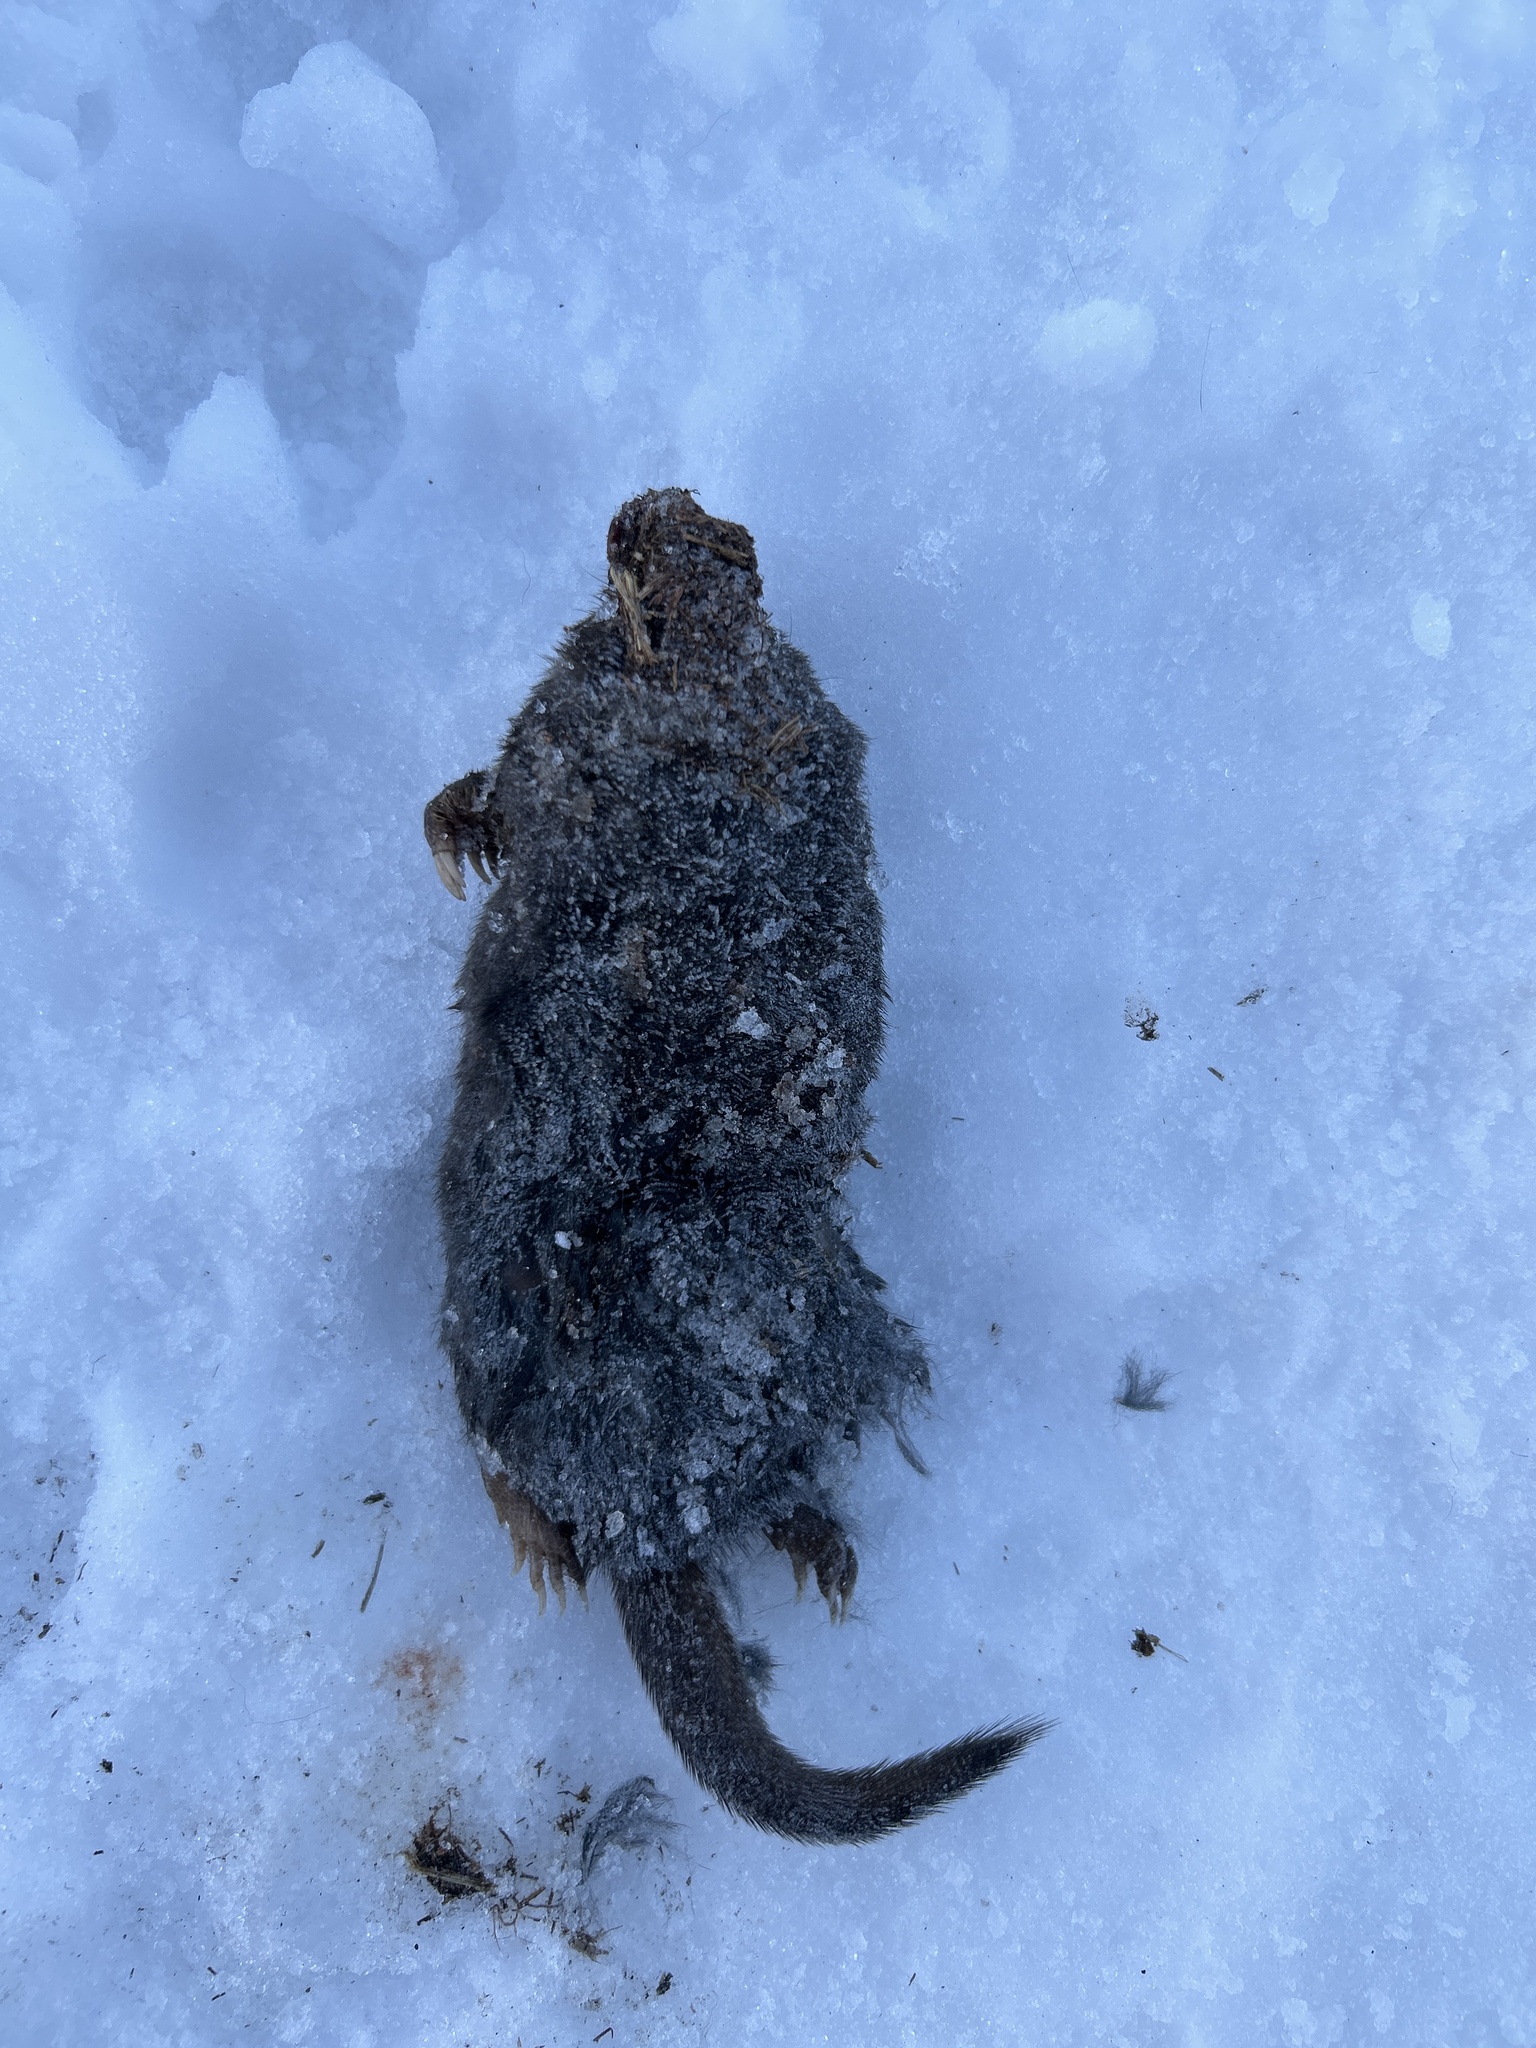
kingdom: Animalia
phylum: Chordata
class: Mammalia
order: Soricomorpha
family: Talpidae
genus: Condylura
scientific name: Condylura cristata
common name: Star-nosed mole
